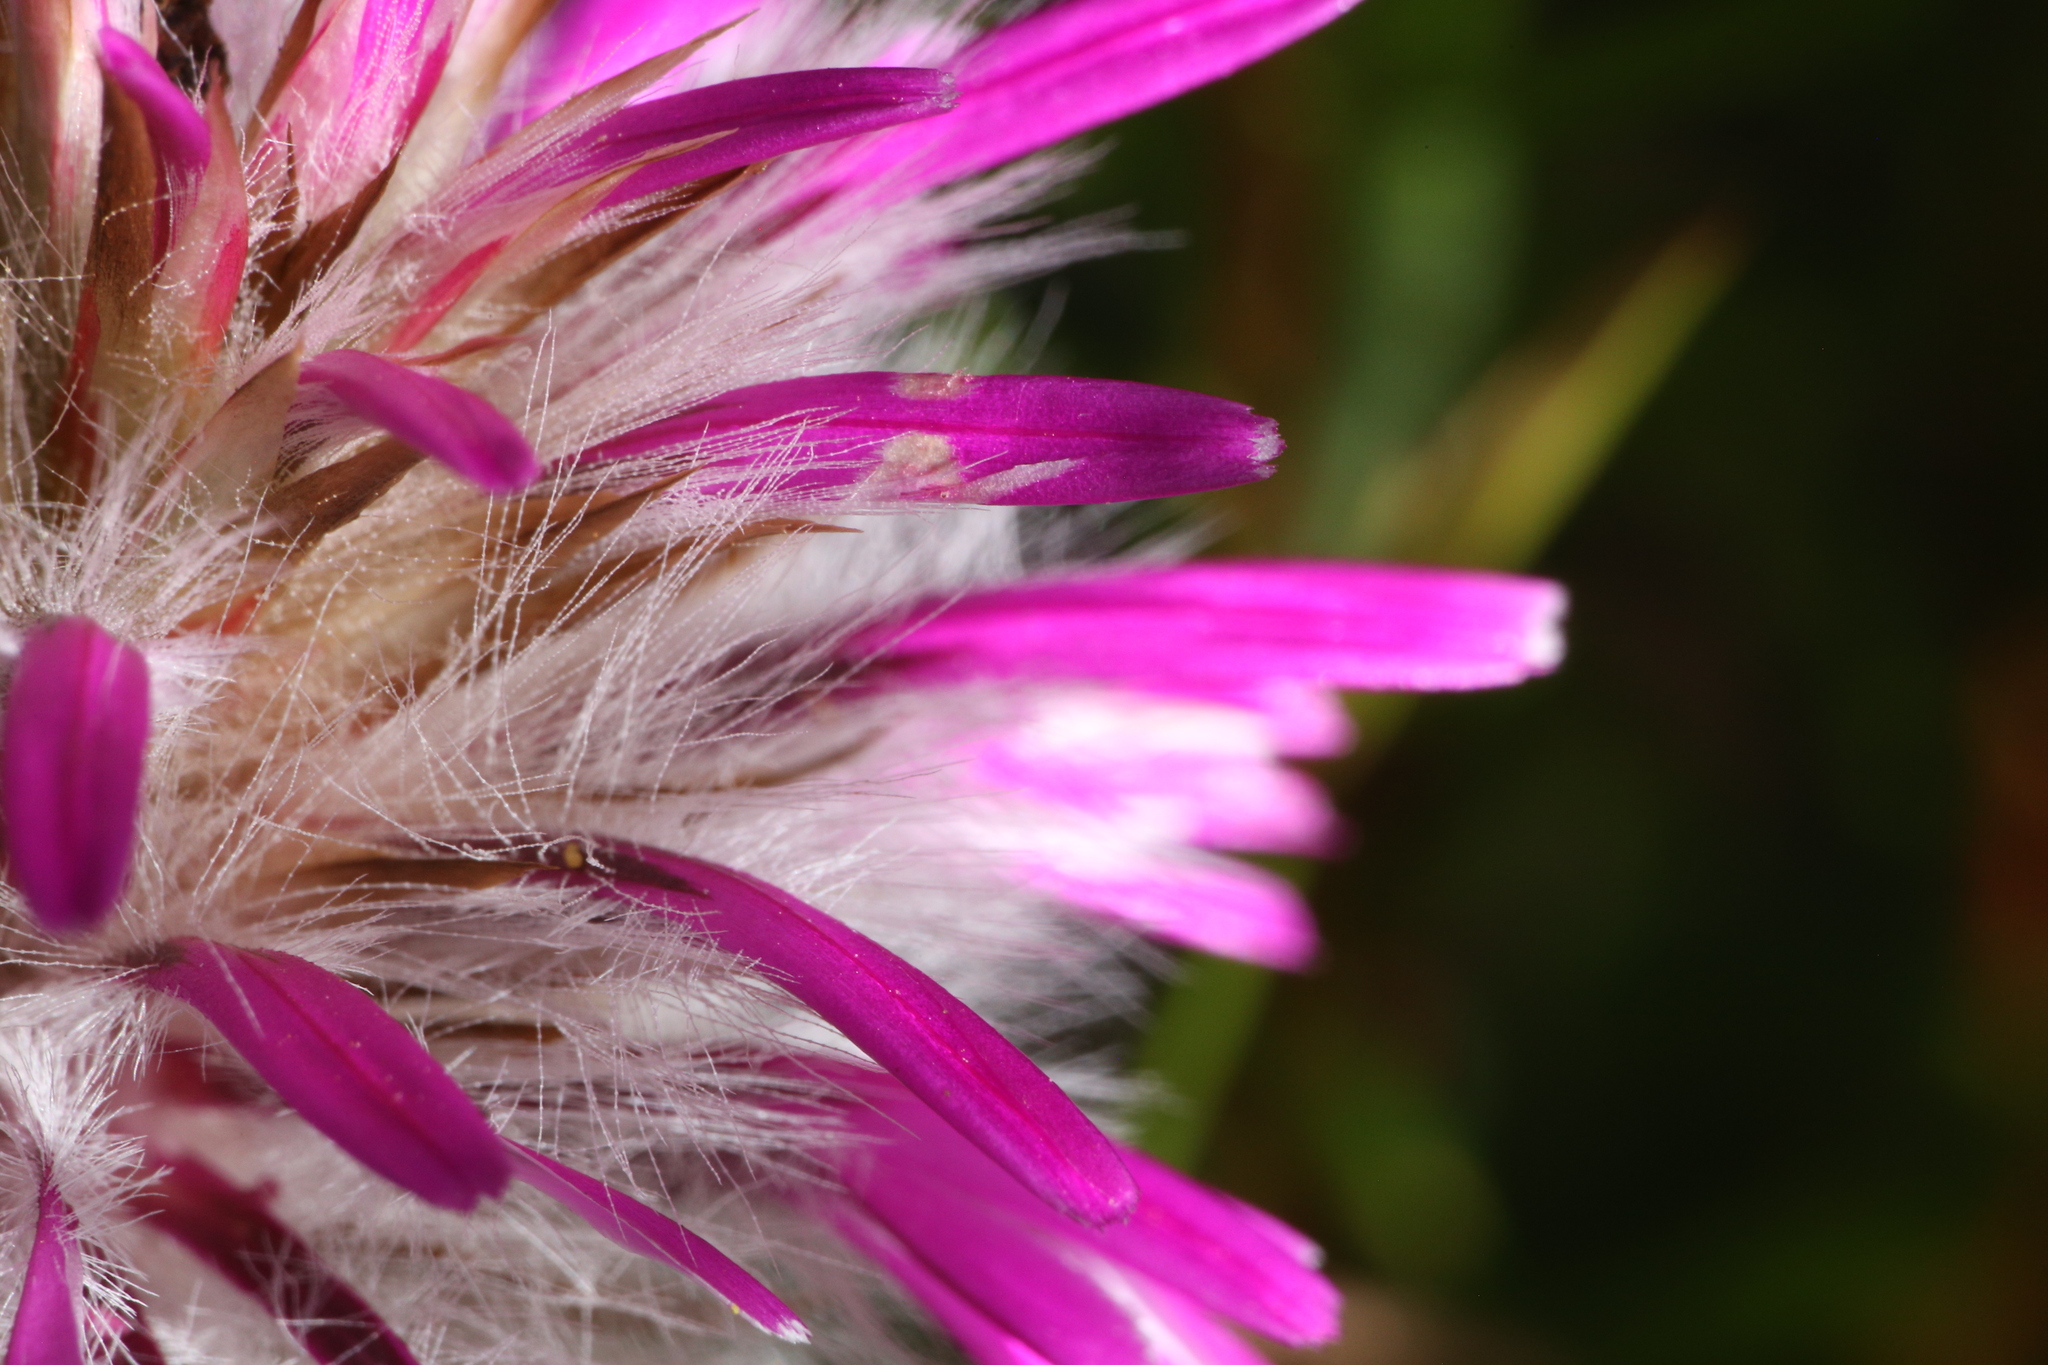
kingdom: Plantae
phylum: Tracheophyta
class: Magnoliopsida
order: Caryophyllales
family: Amaranthaceae
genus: Ptilotus
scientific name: Ptilotus manglesii
